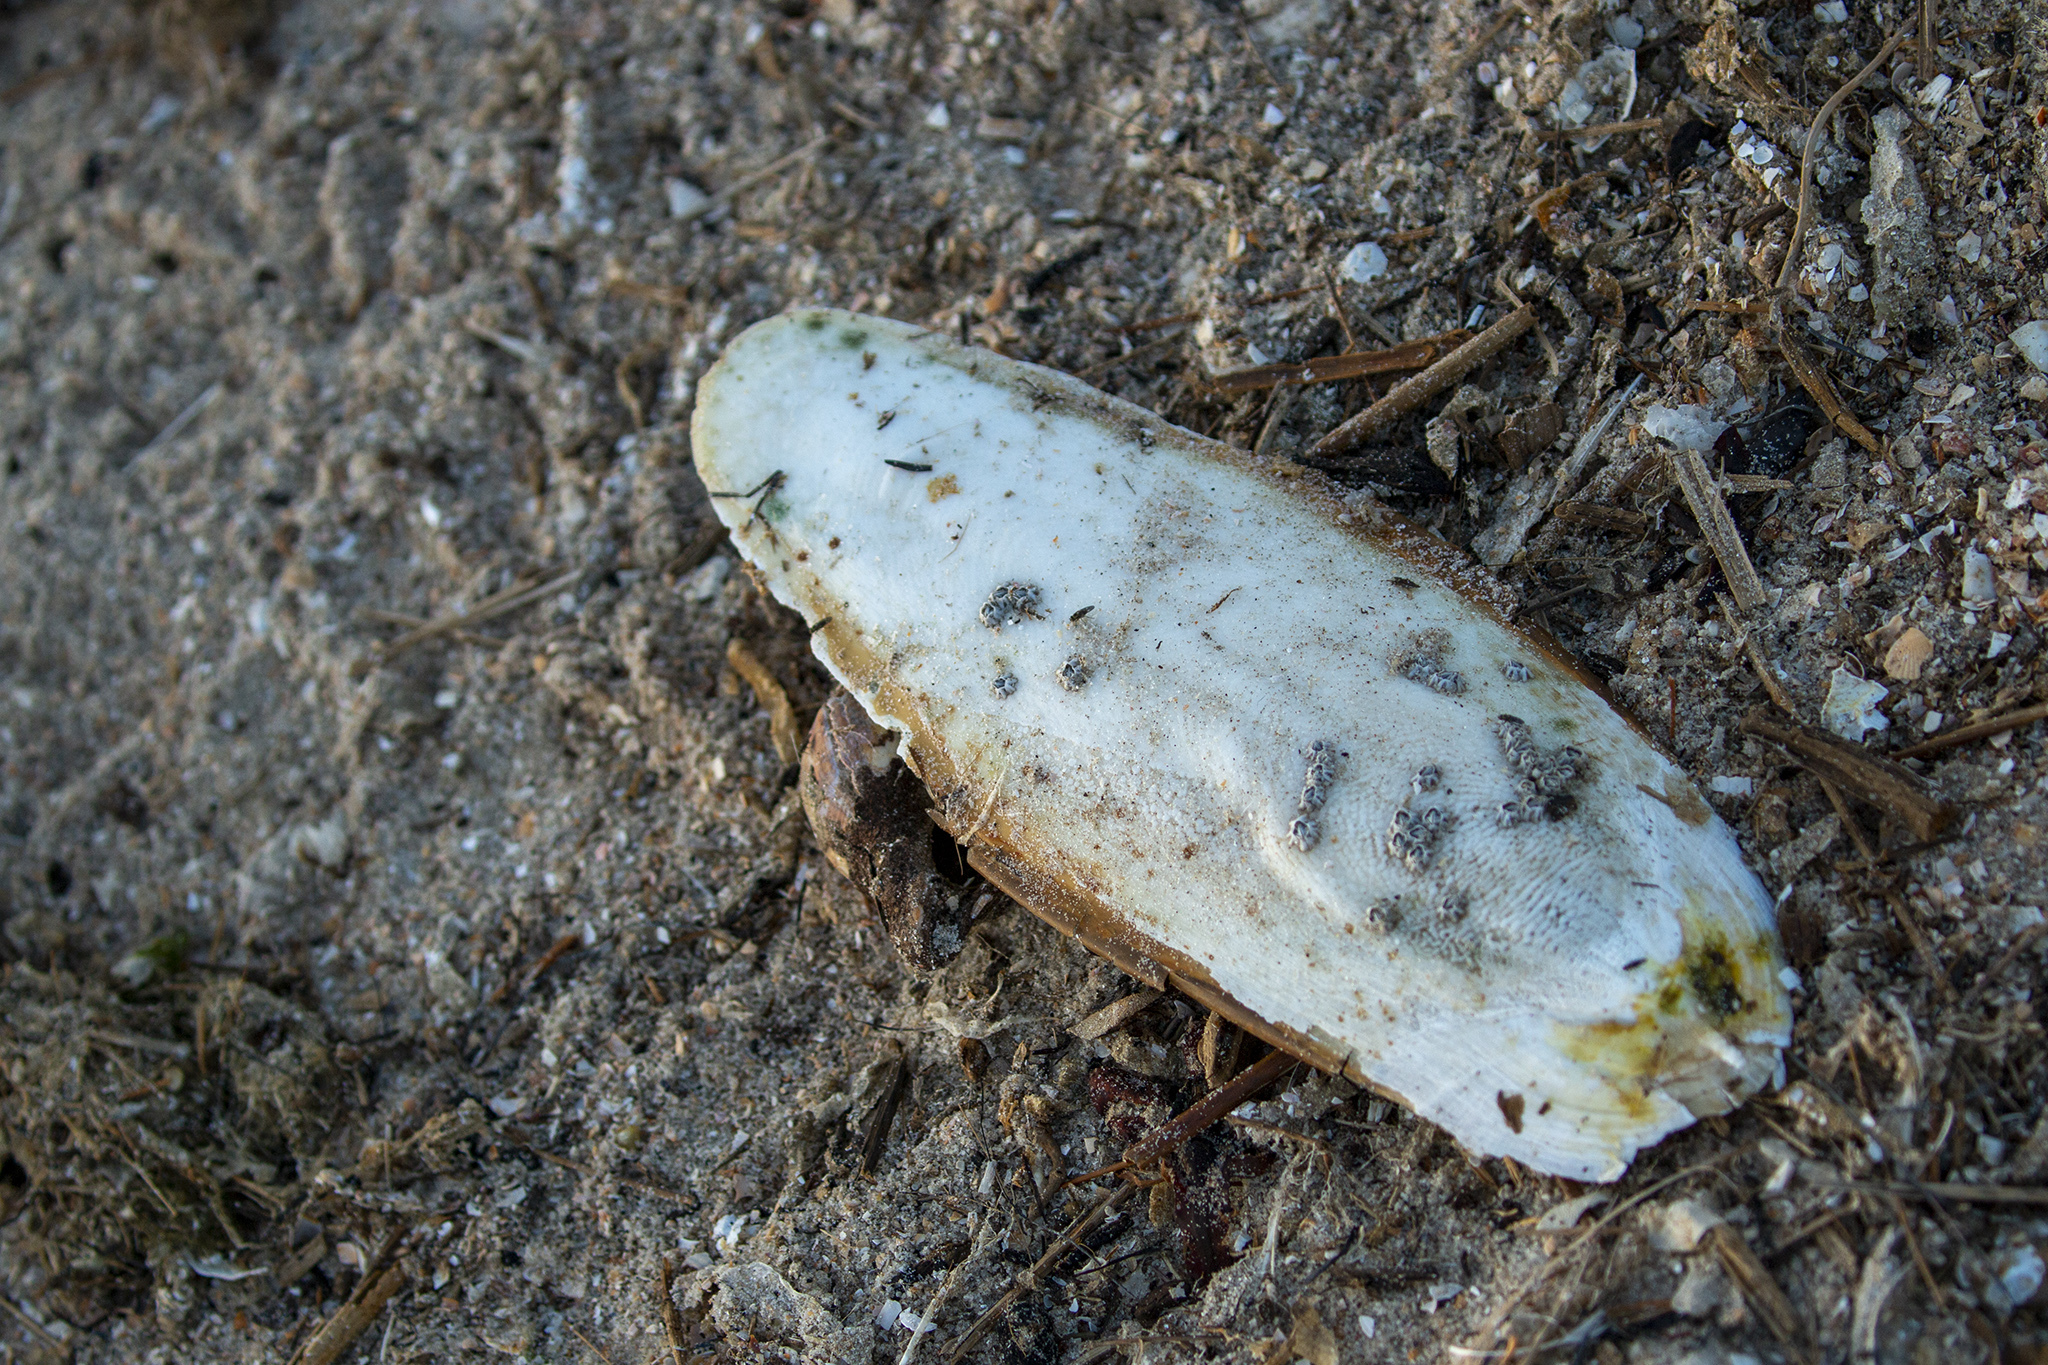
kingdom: Animalia
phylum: Mollusca
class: Cephalopoda
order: Sepiida
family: Sepiidae
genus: Sepia
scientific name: Sepia officinalis
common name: Common cuttlefish
